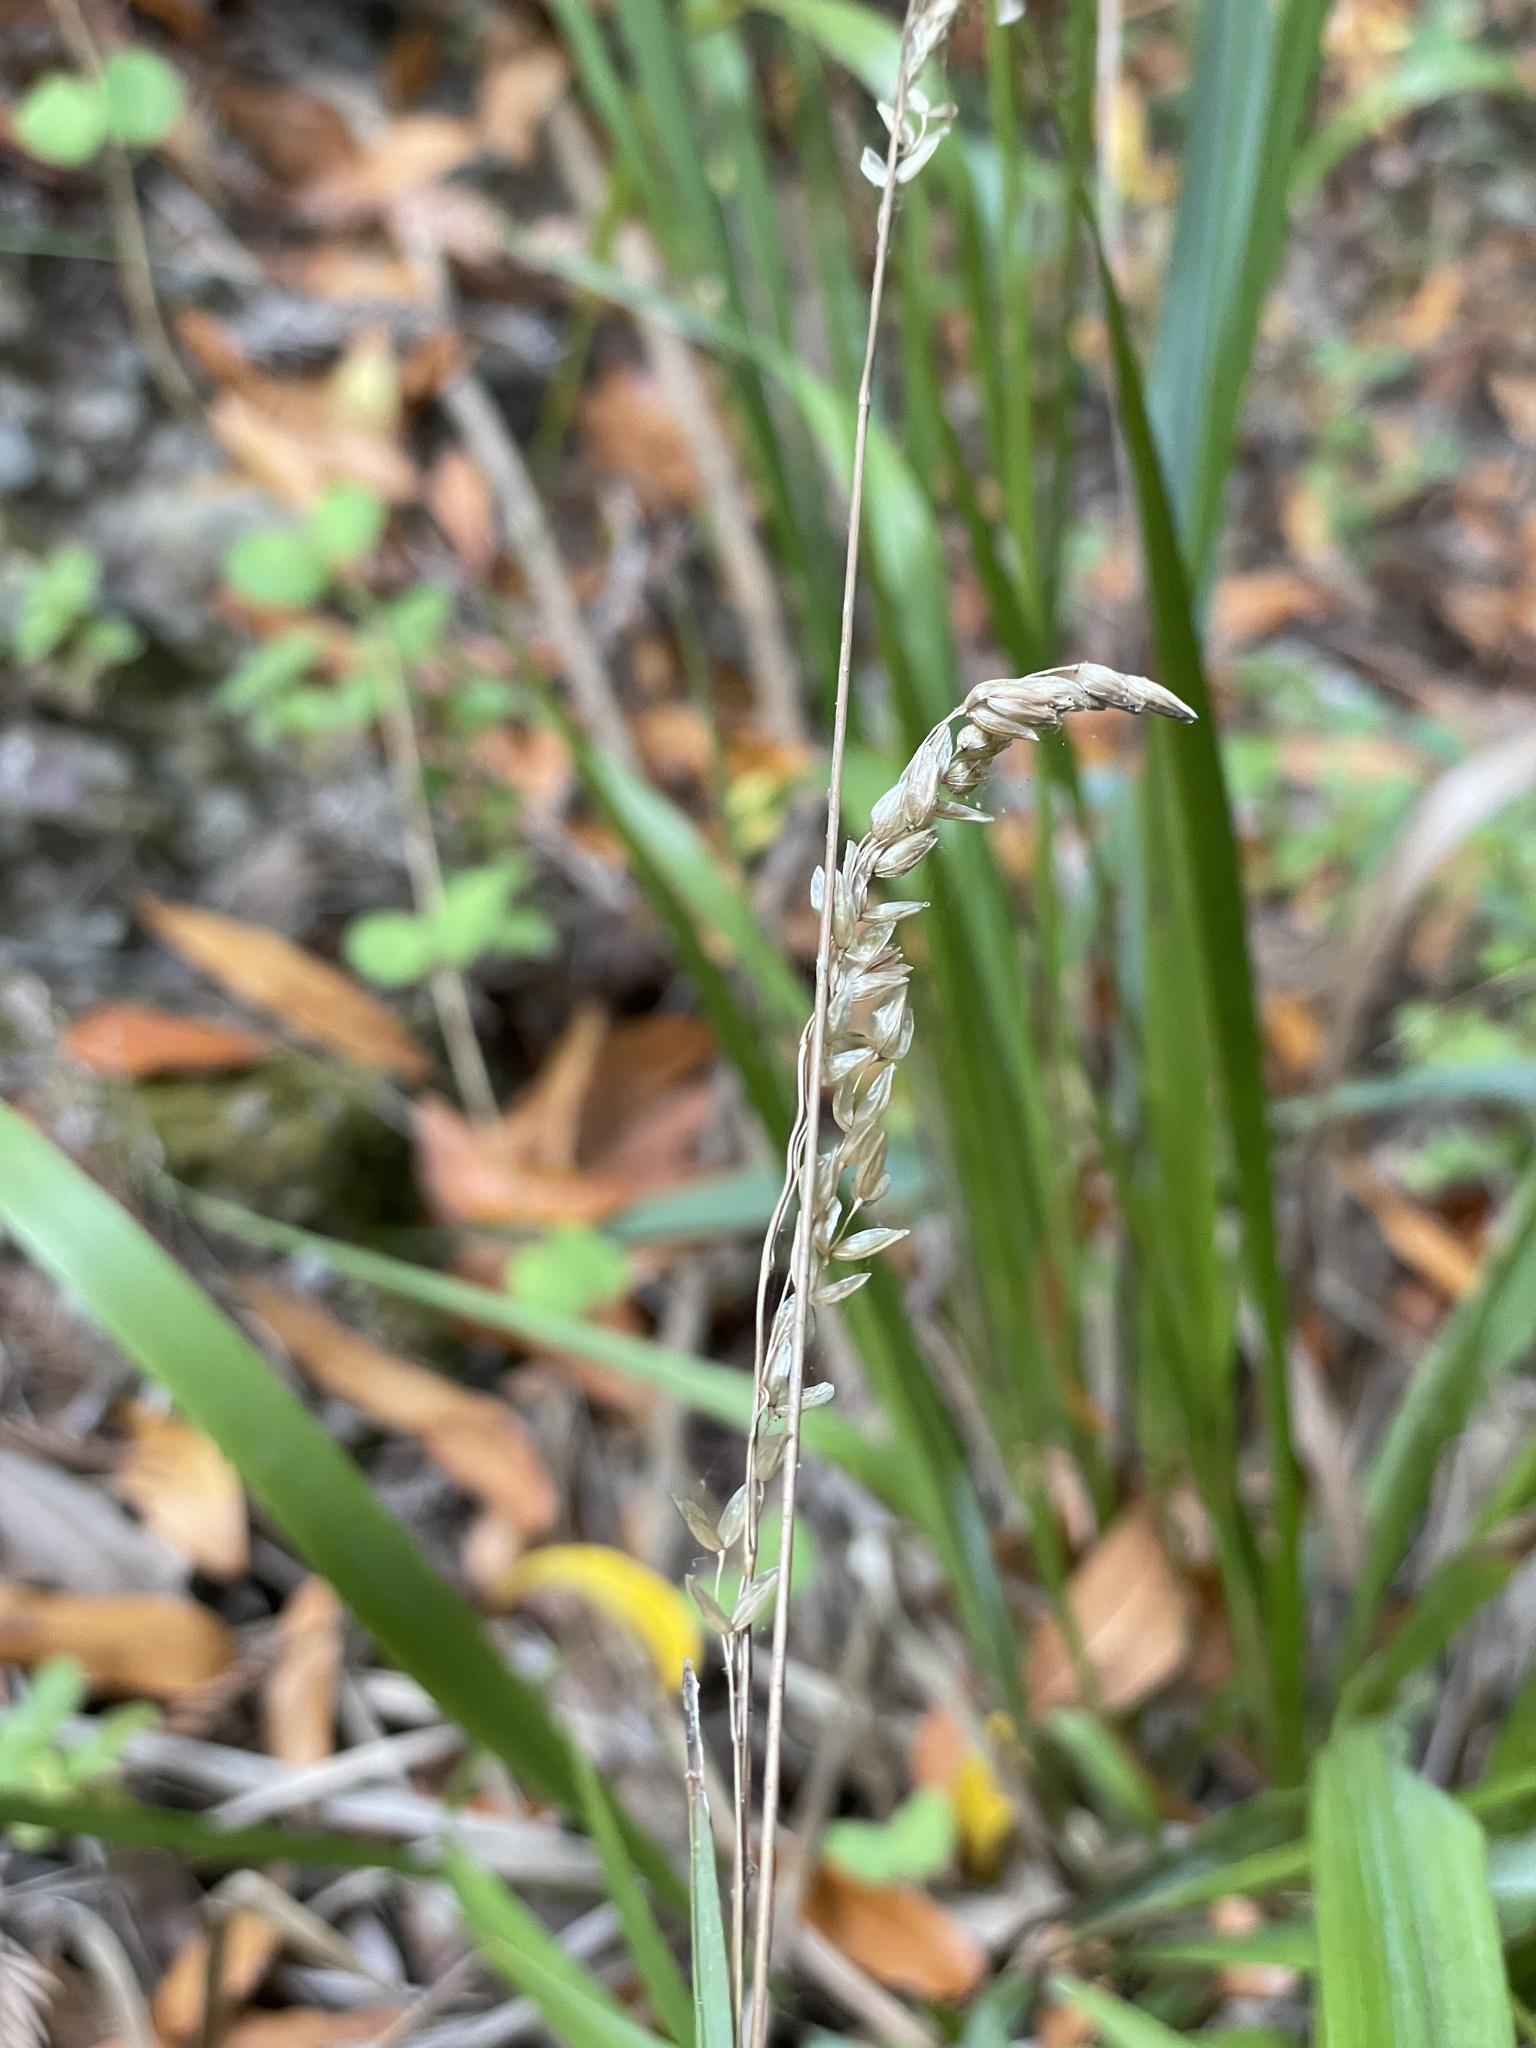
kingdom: Plantae
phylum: Tracheophyta
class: Liliopsida
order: Poales
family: Poaceae
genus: Anthoxanthum
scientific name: Anthoxanthum occidentale
